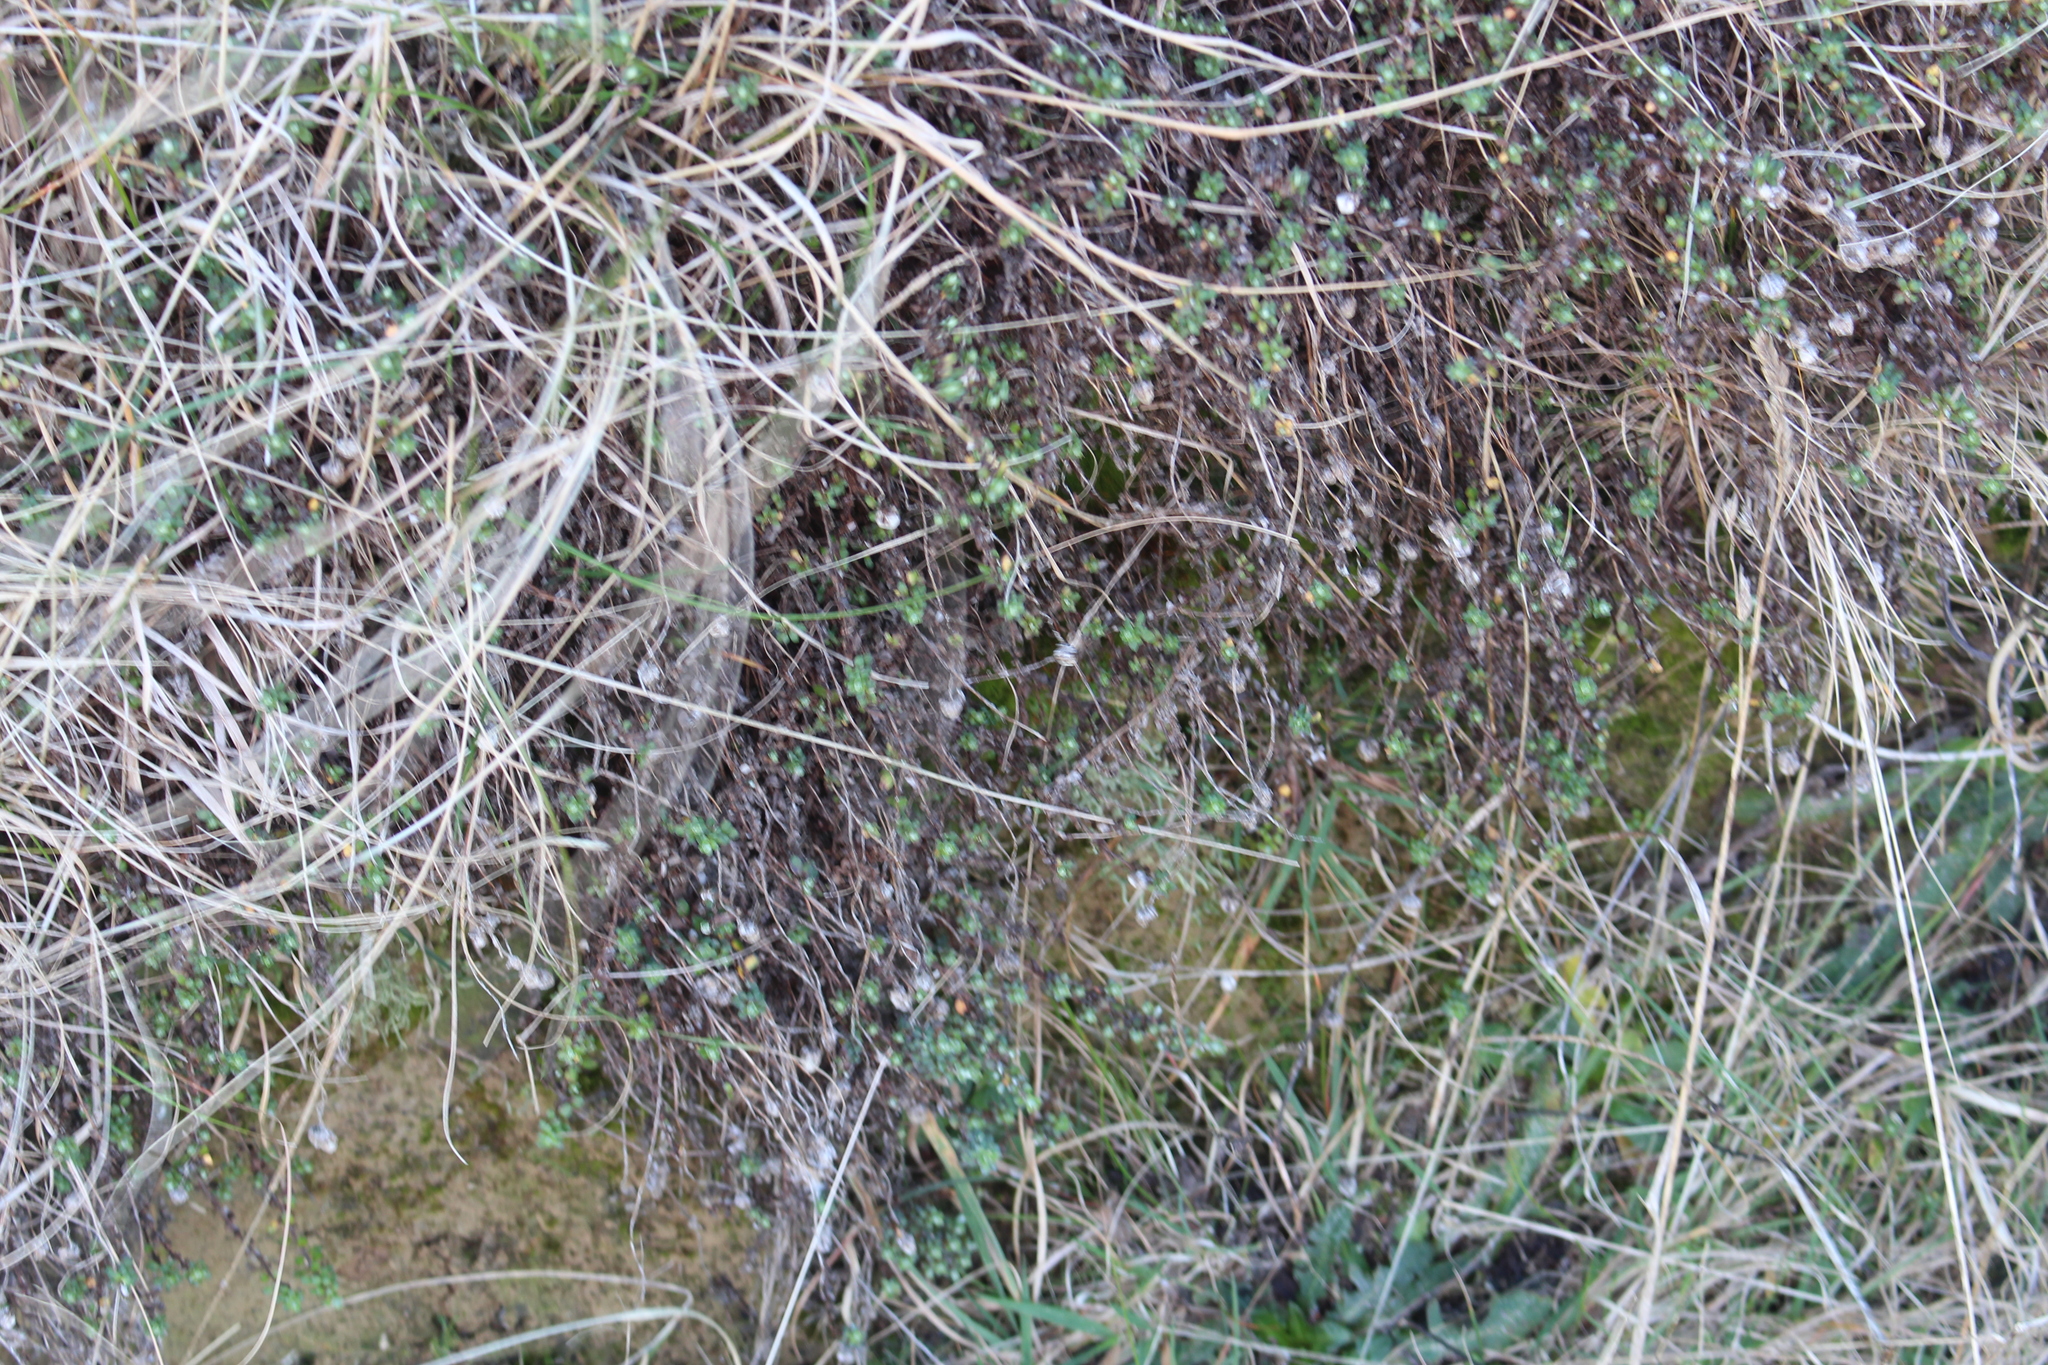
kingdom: Plantae
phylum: Tracheophyta
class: Magnoliopsida
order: Asterales
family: Asteraceae
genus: Anaphalioides
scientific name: Anaphalioides bellidioides
